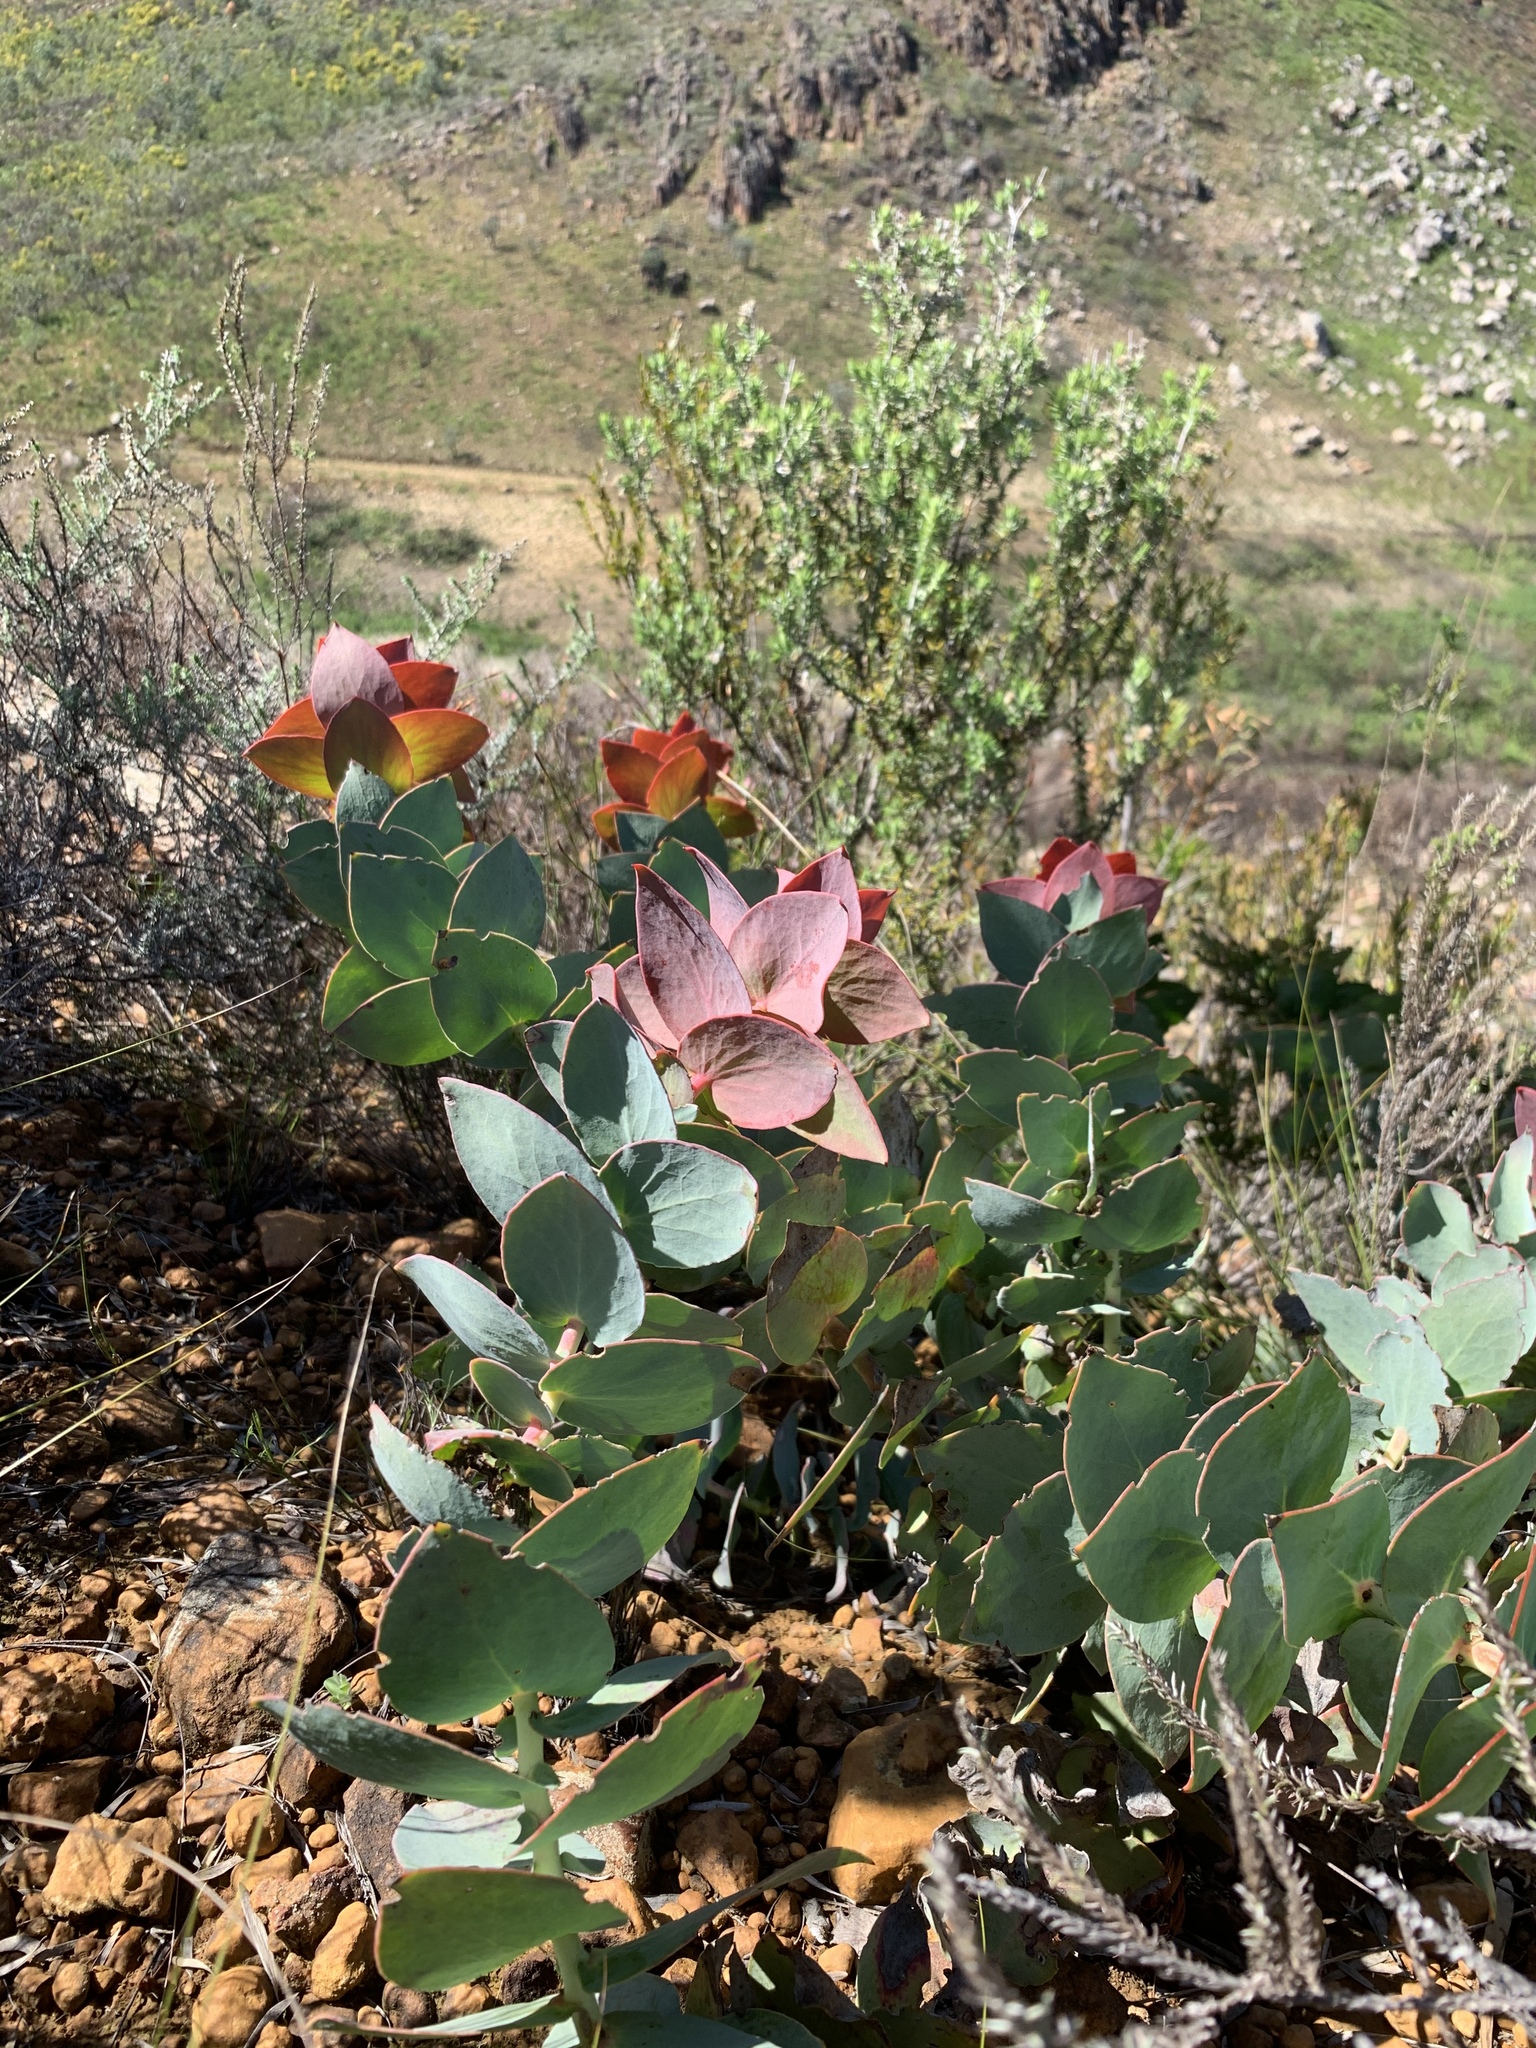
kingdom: Plantae
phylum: Tracheophyta
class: Magnoliopsida
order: Proteales
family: Proteaceae
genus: Protea
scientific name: Protea amplexicaulis
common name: Clasping-leaf sugarbush
